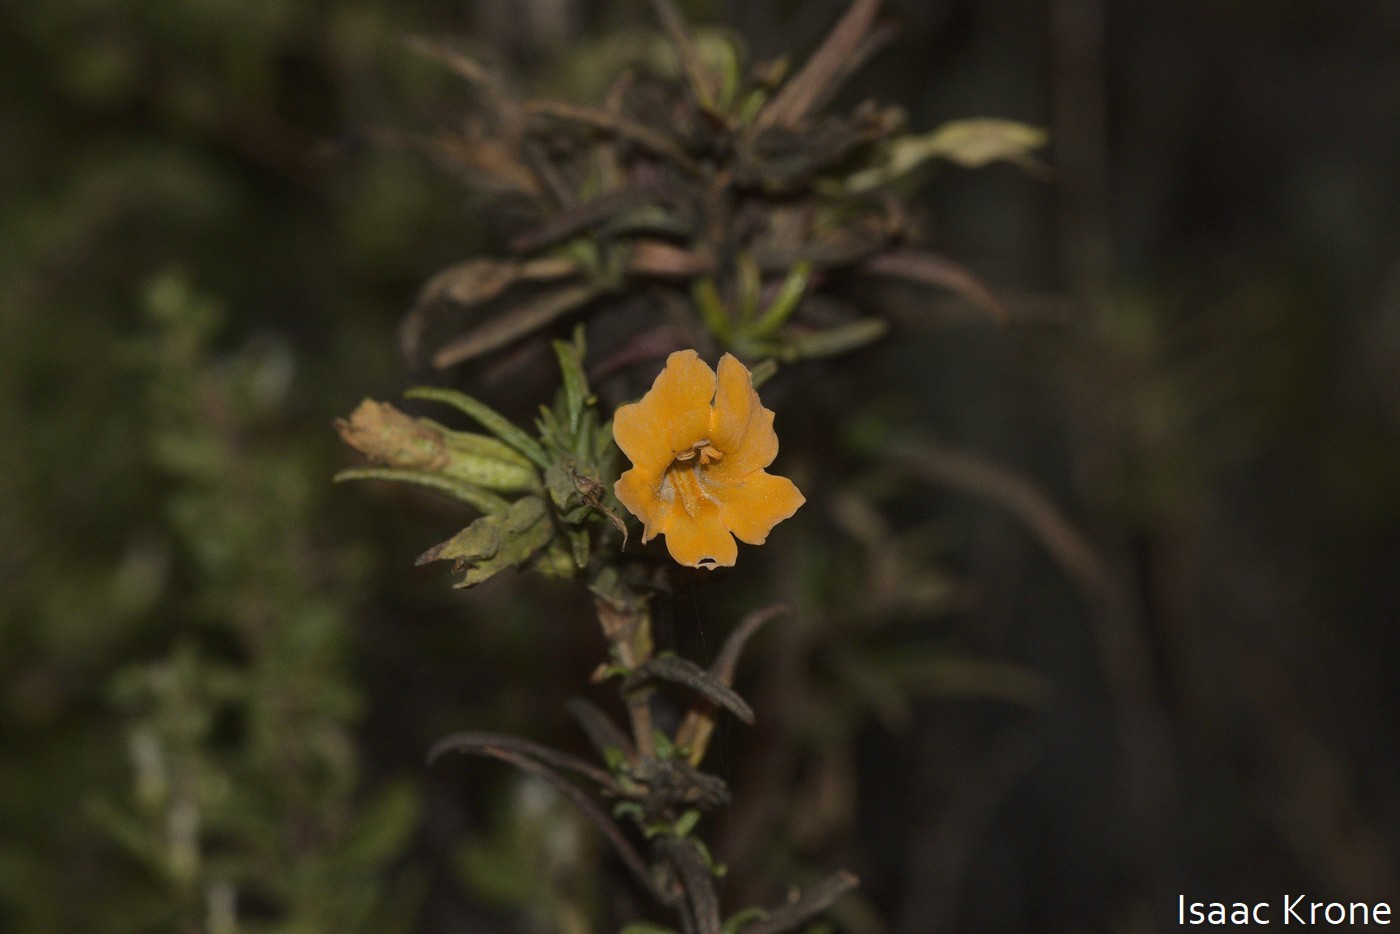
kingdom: Plantae
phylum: Tracheophyta
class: Magnoliopsida
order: Lamiales
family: Phrymaceae
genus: Diplacus
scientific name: Diplacus aurantiacus
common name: Bush monkey-flower
